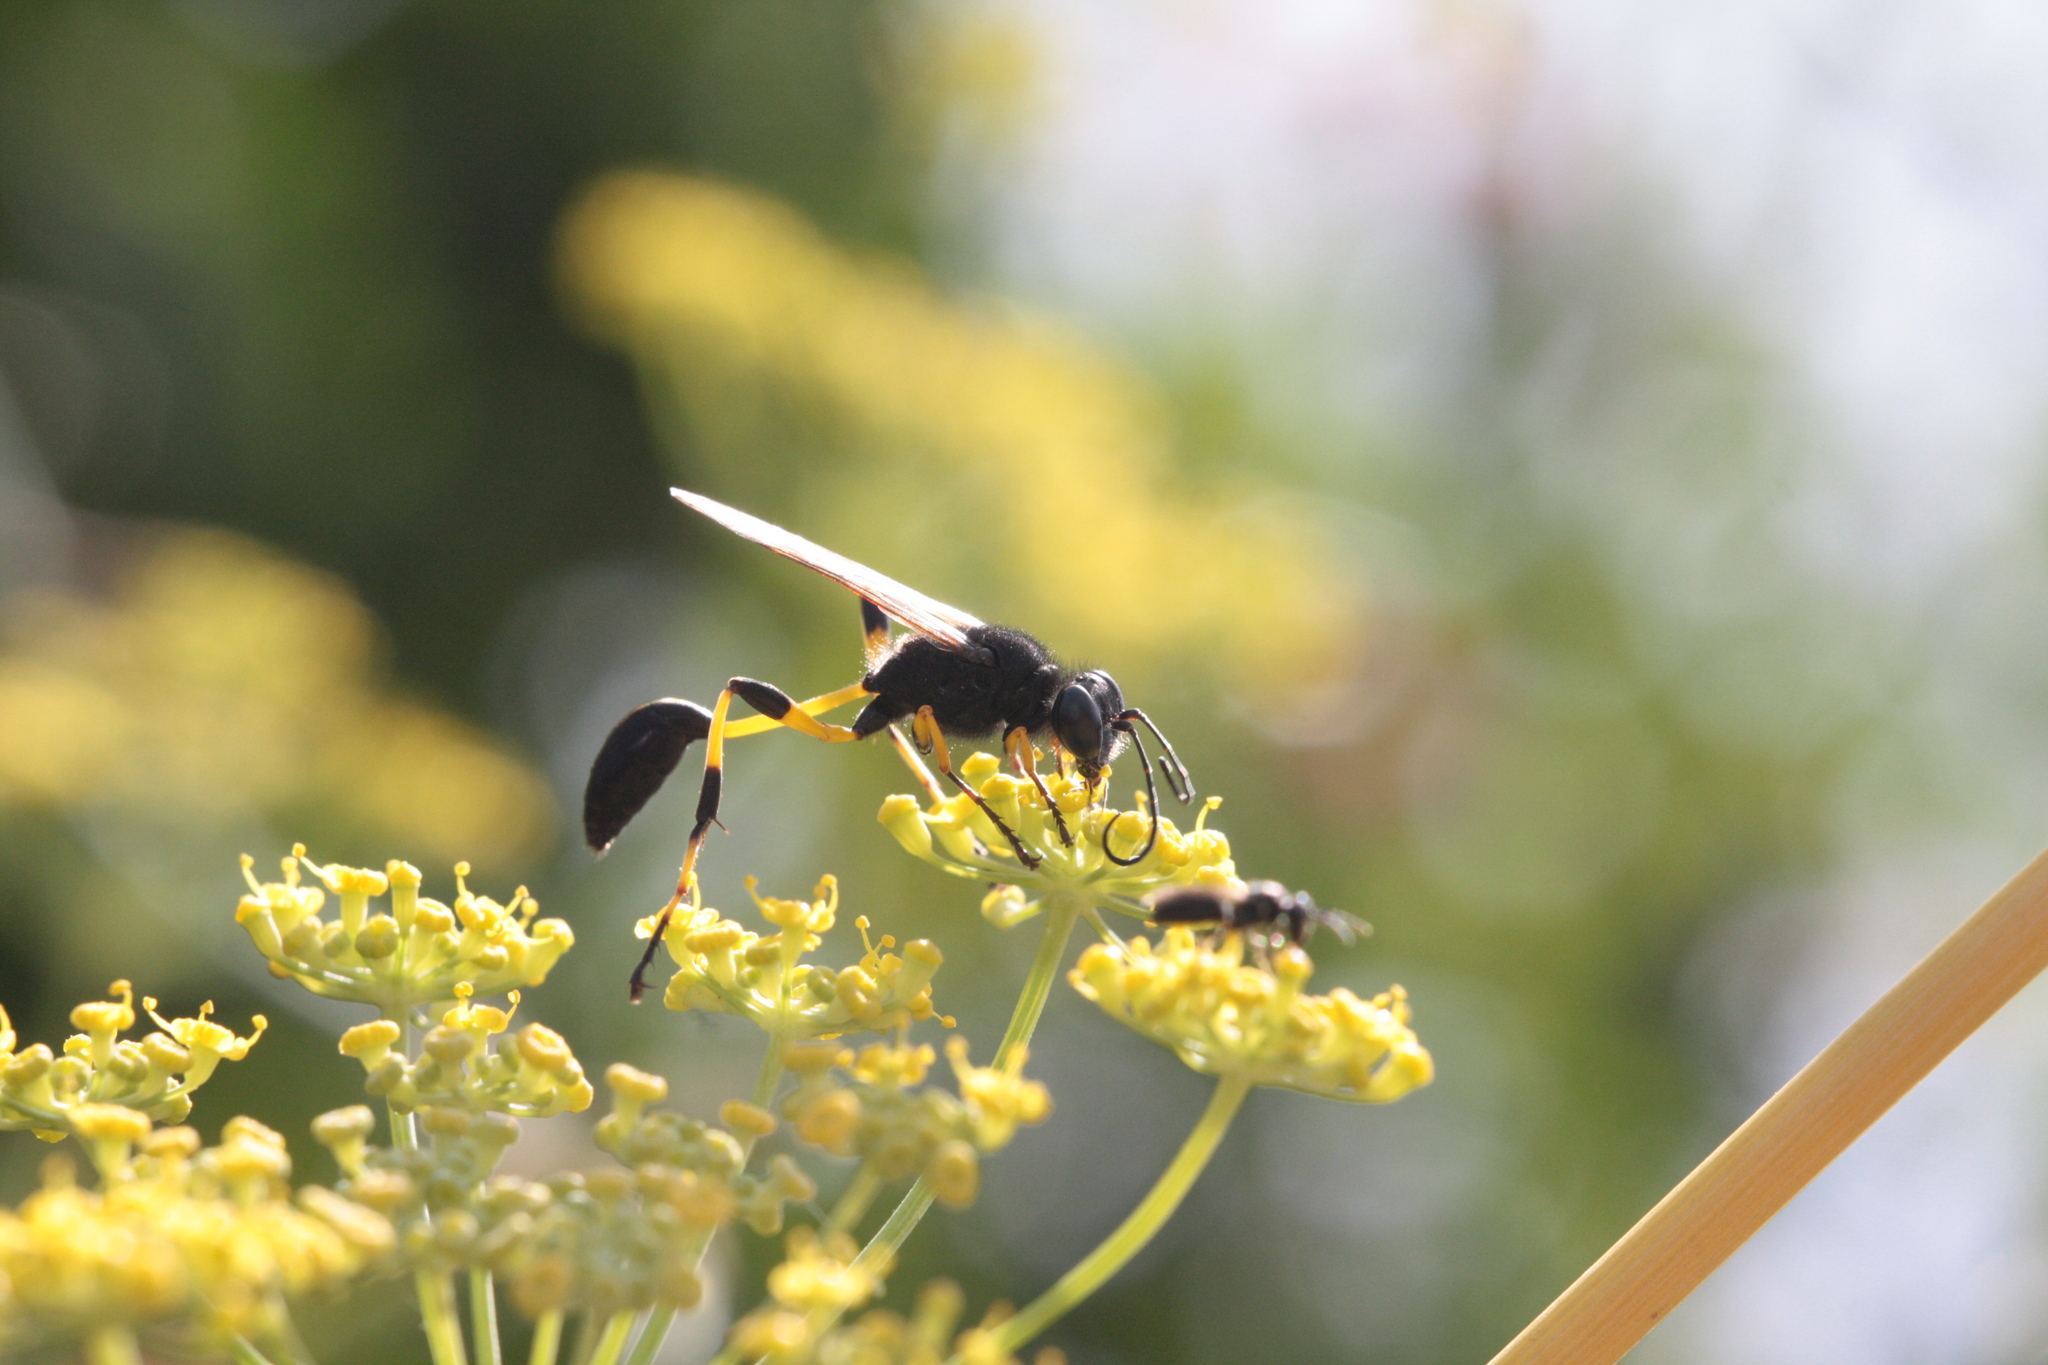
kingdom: Animalia
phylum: Arthropoda
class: Insecta
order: Hymenoptera
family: Sphecidae
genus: Sceliphron
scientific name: Sceliphron spirifex
